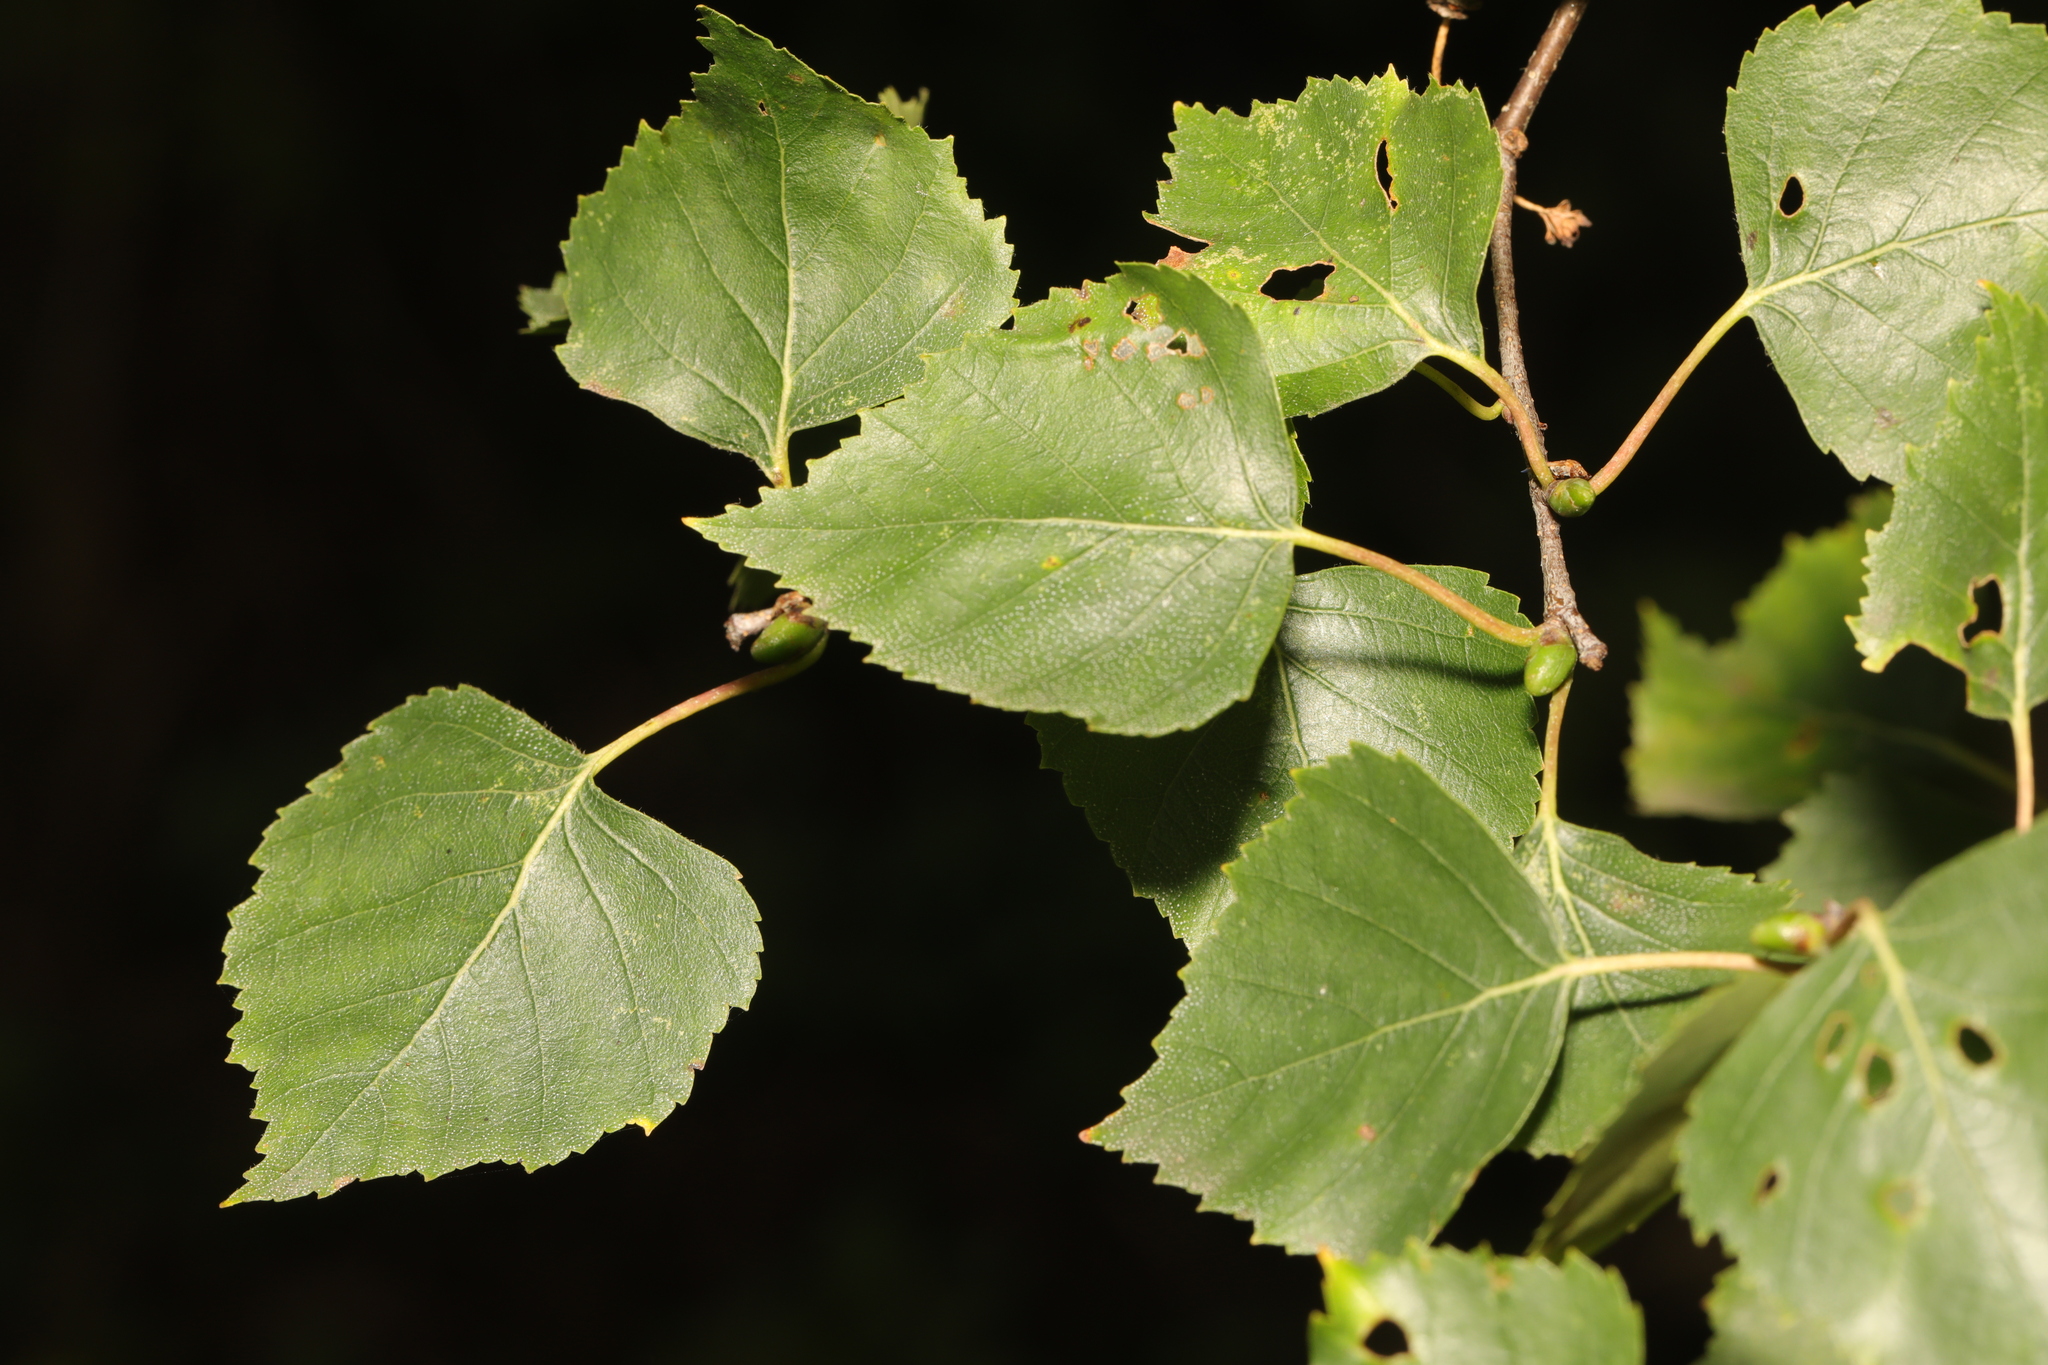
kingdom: Plantae
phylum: Tracheophyta
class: Magnoliopsida
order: Fagales
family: Betulaceae
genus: Betula
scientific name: Betula pendula
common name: Silver birch
